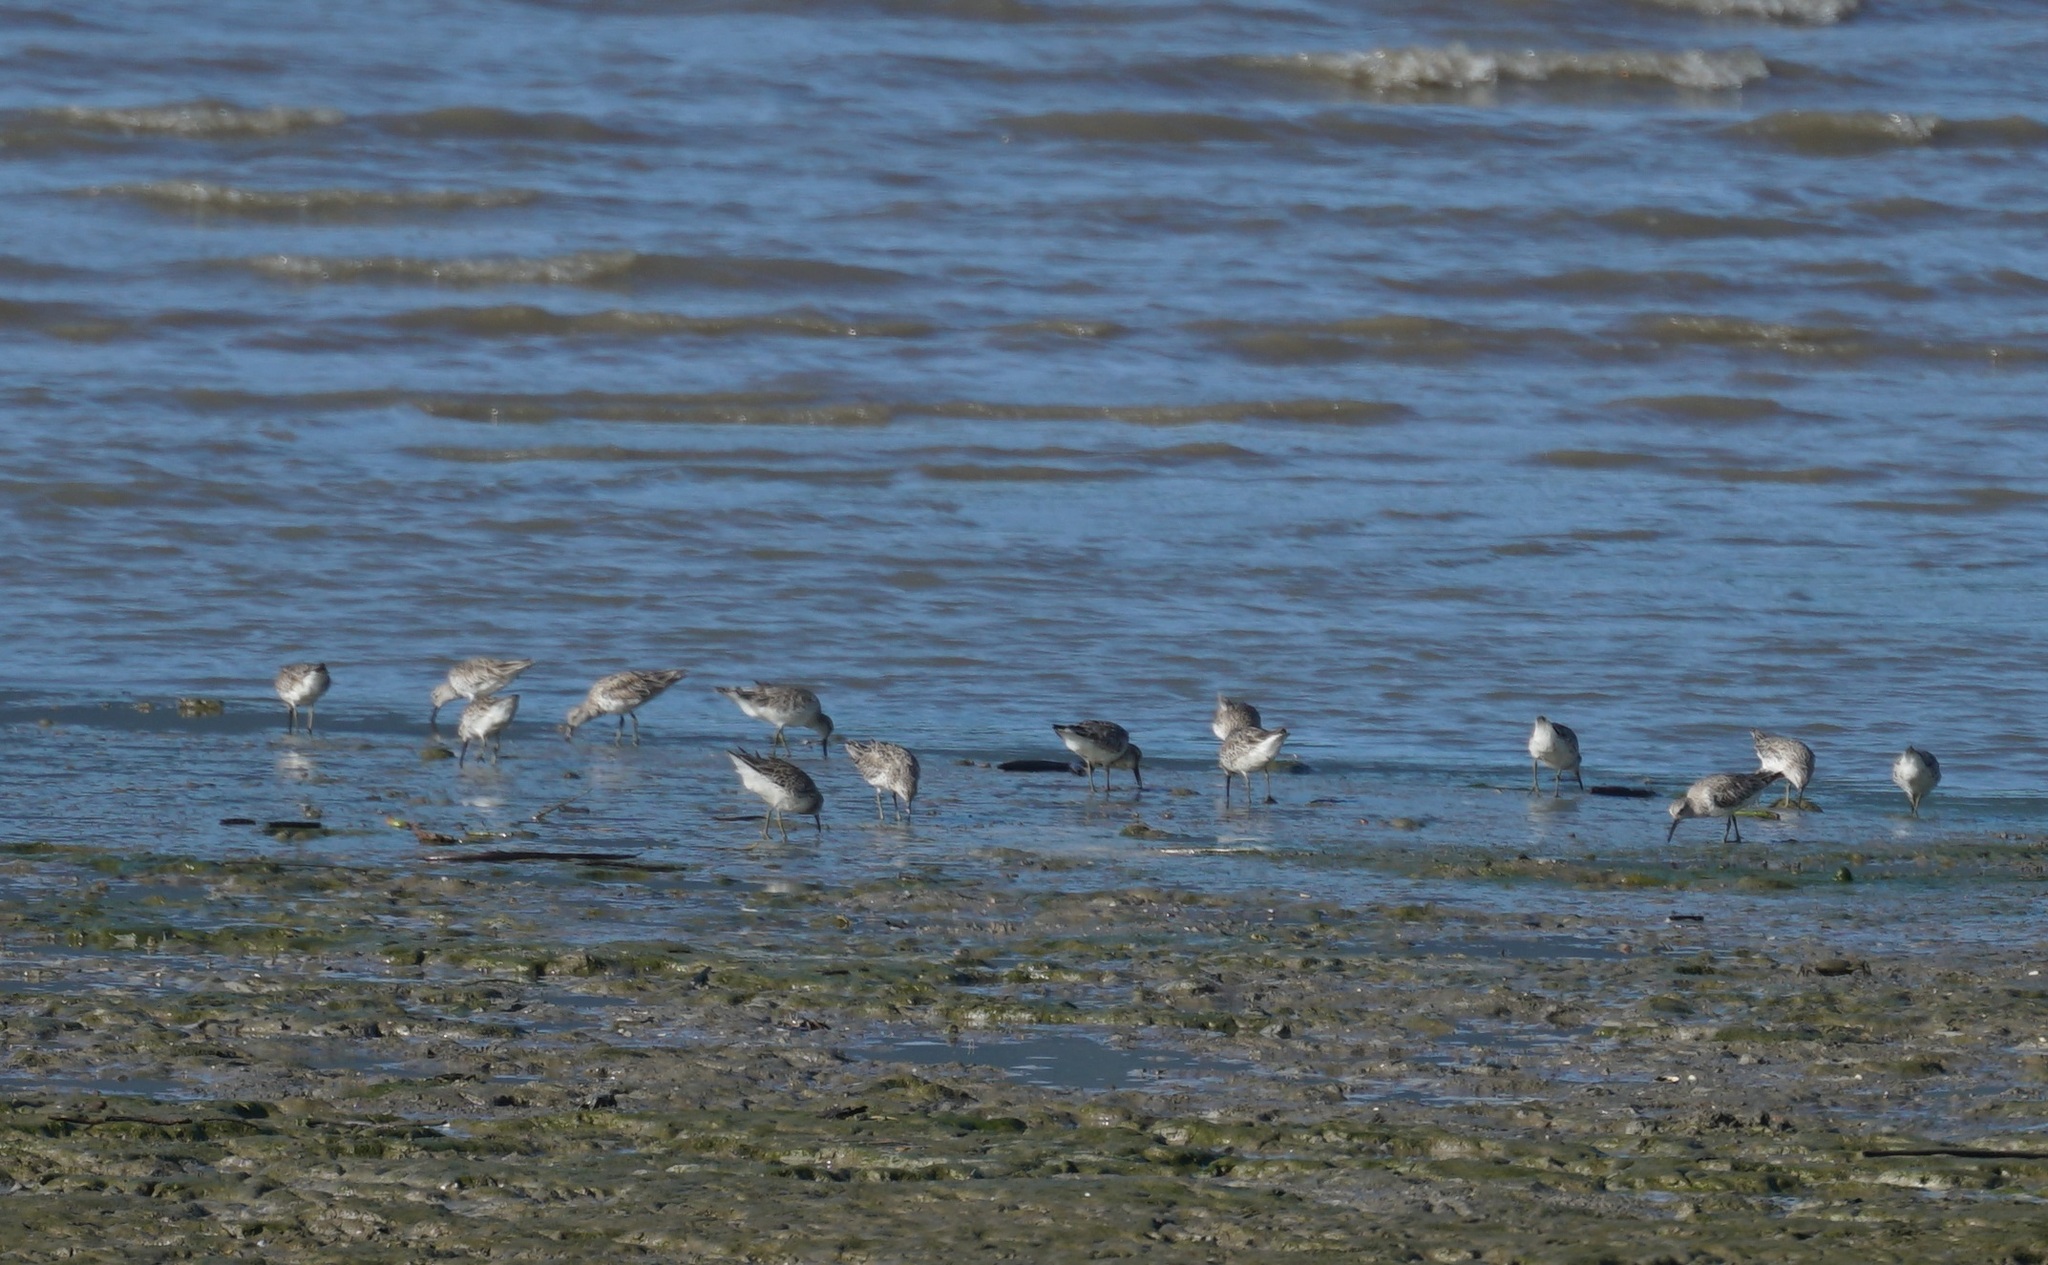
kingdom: Animalia
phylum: Chordata
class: Aves
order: Charadriiformes
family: Scolopacidae
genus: Calidris
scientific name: Calidris tenuirostris
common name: Great knot
